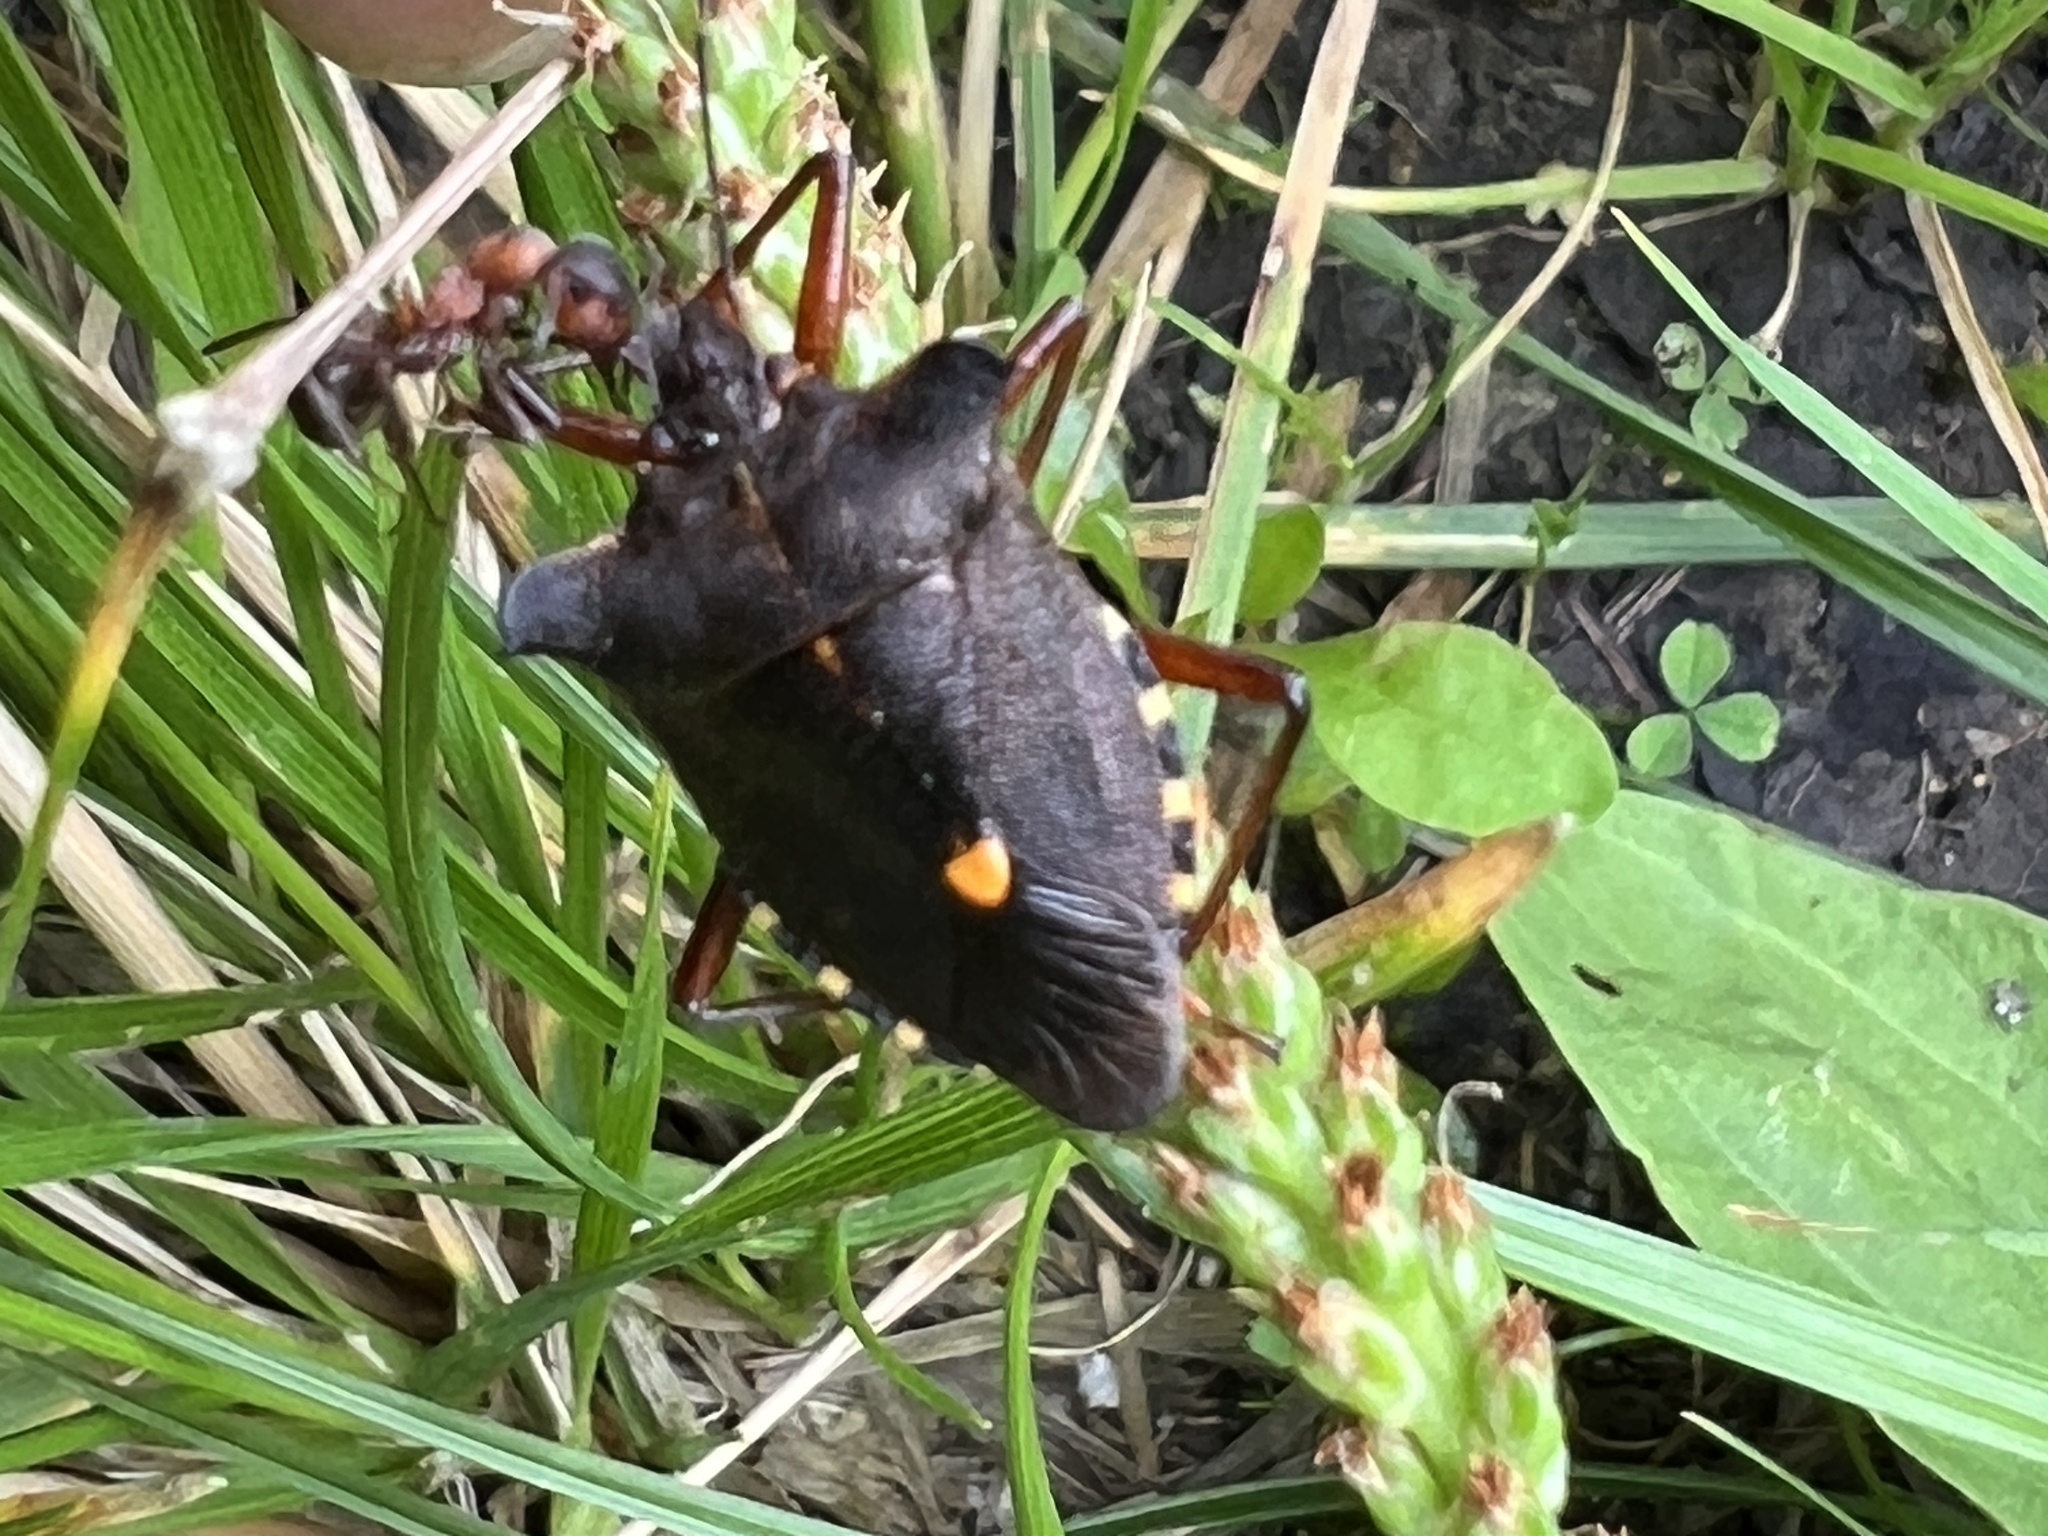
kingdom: Animalia
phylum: Arthropoda
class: Insecta
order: Hemiptera
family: Pentatomidae
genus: Pentatoma
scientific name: Pentatoma rufipes
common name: Forest bug
